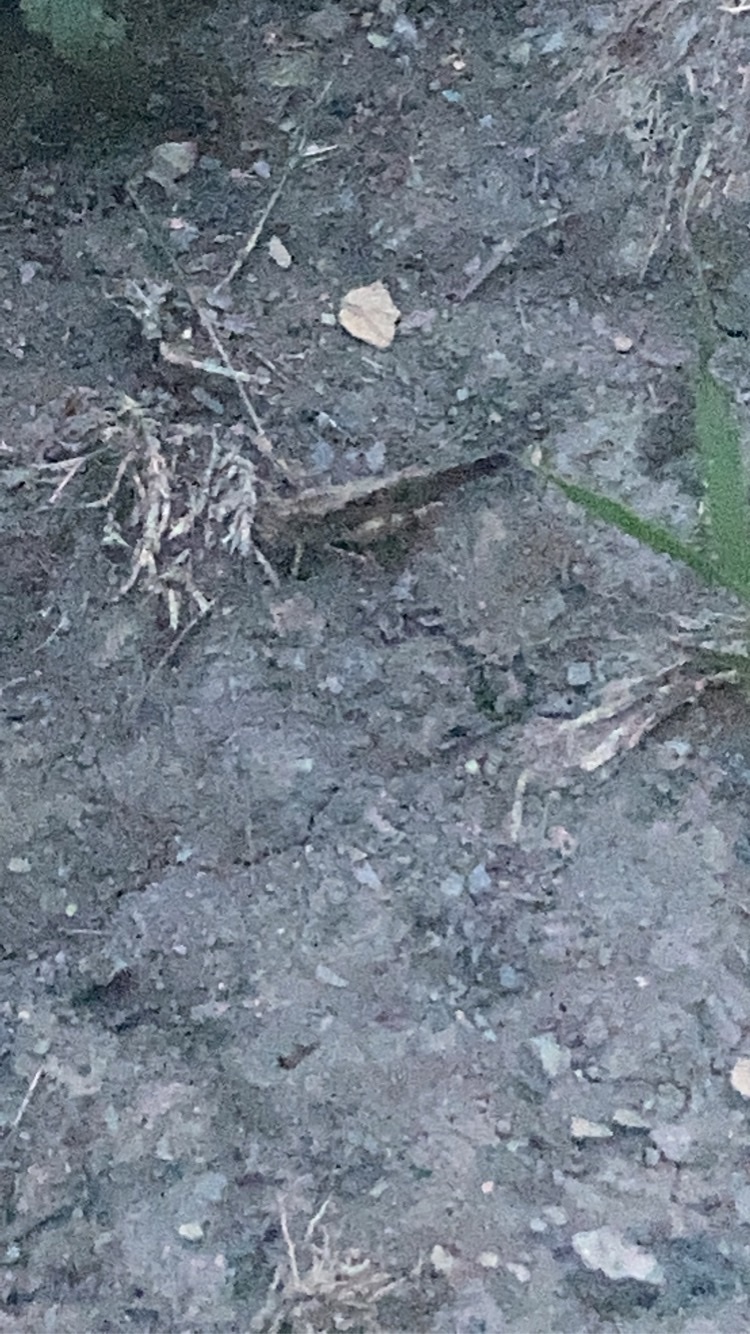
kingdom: Animalia
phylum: Arthropoda
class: Insecta
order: Orthoptera
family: Acrididae
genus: Dissosteira
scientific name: Dissosteira carolina
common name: Carolina grasshopper
